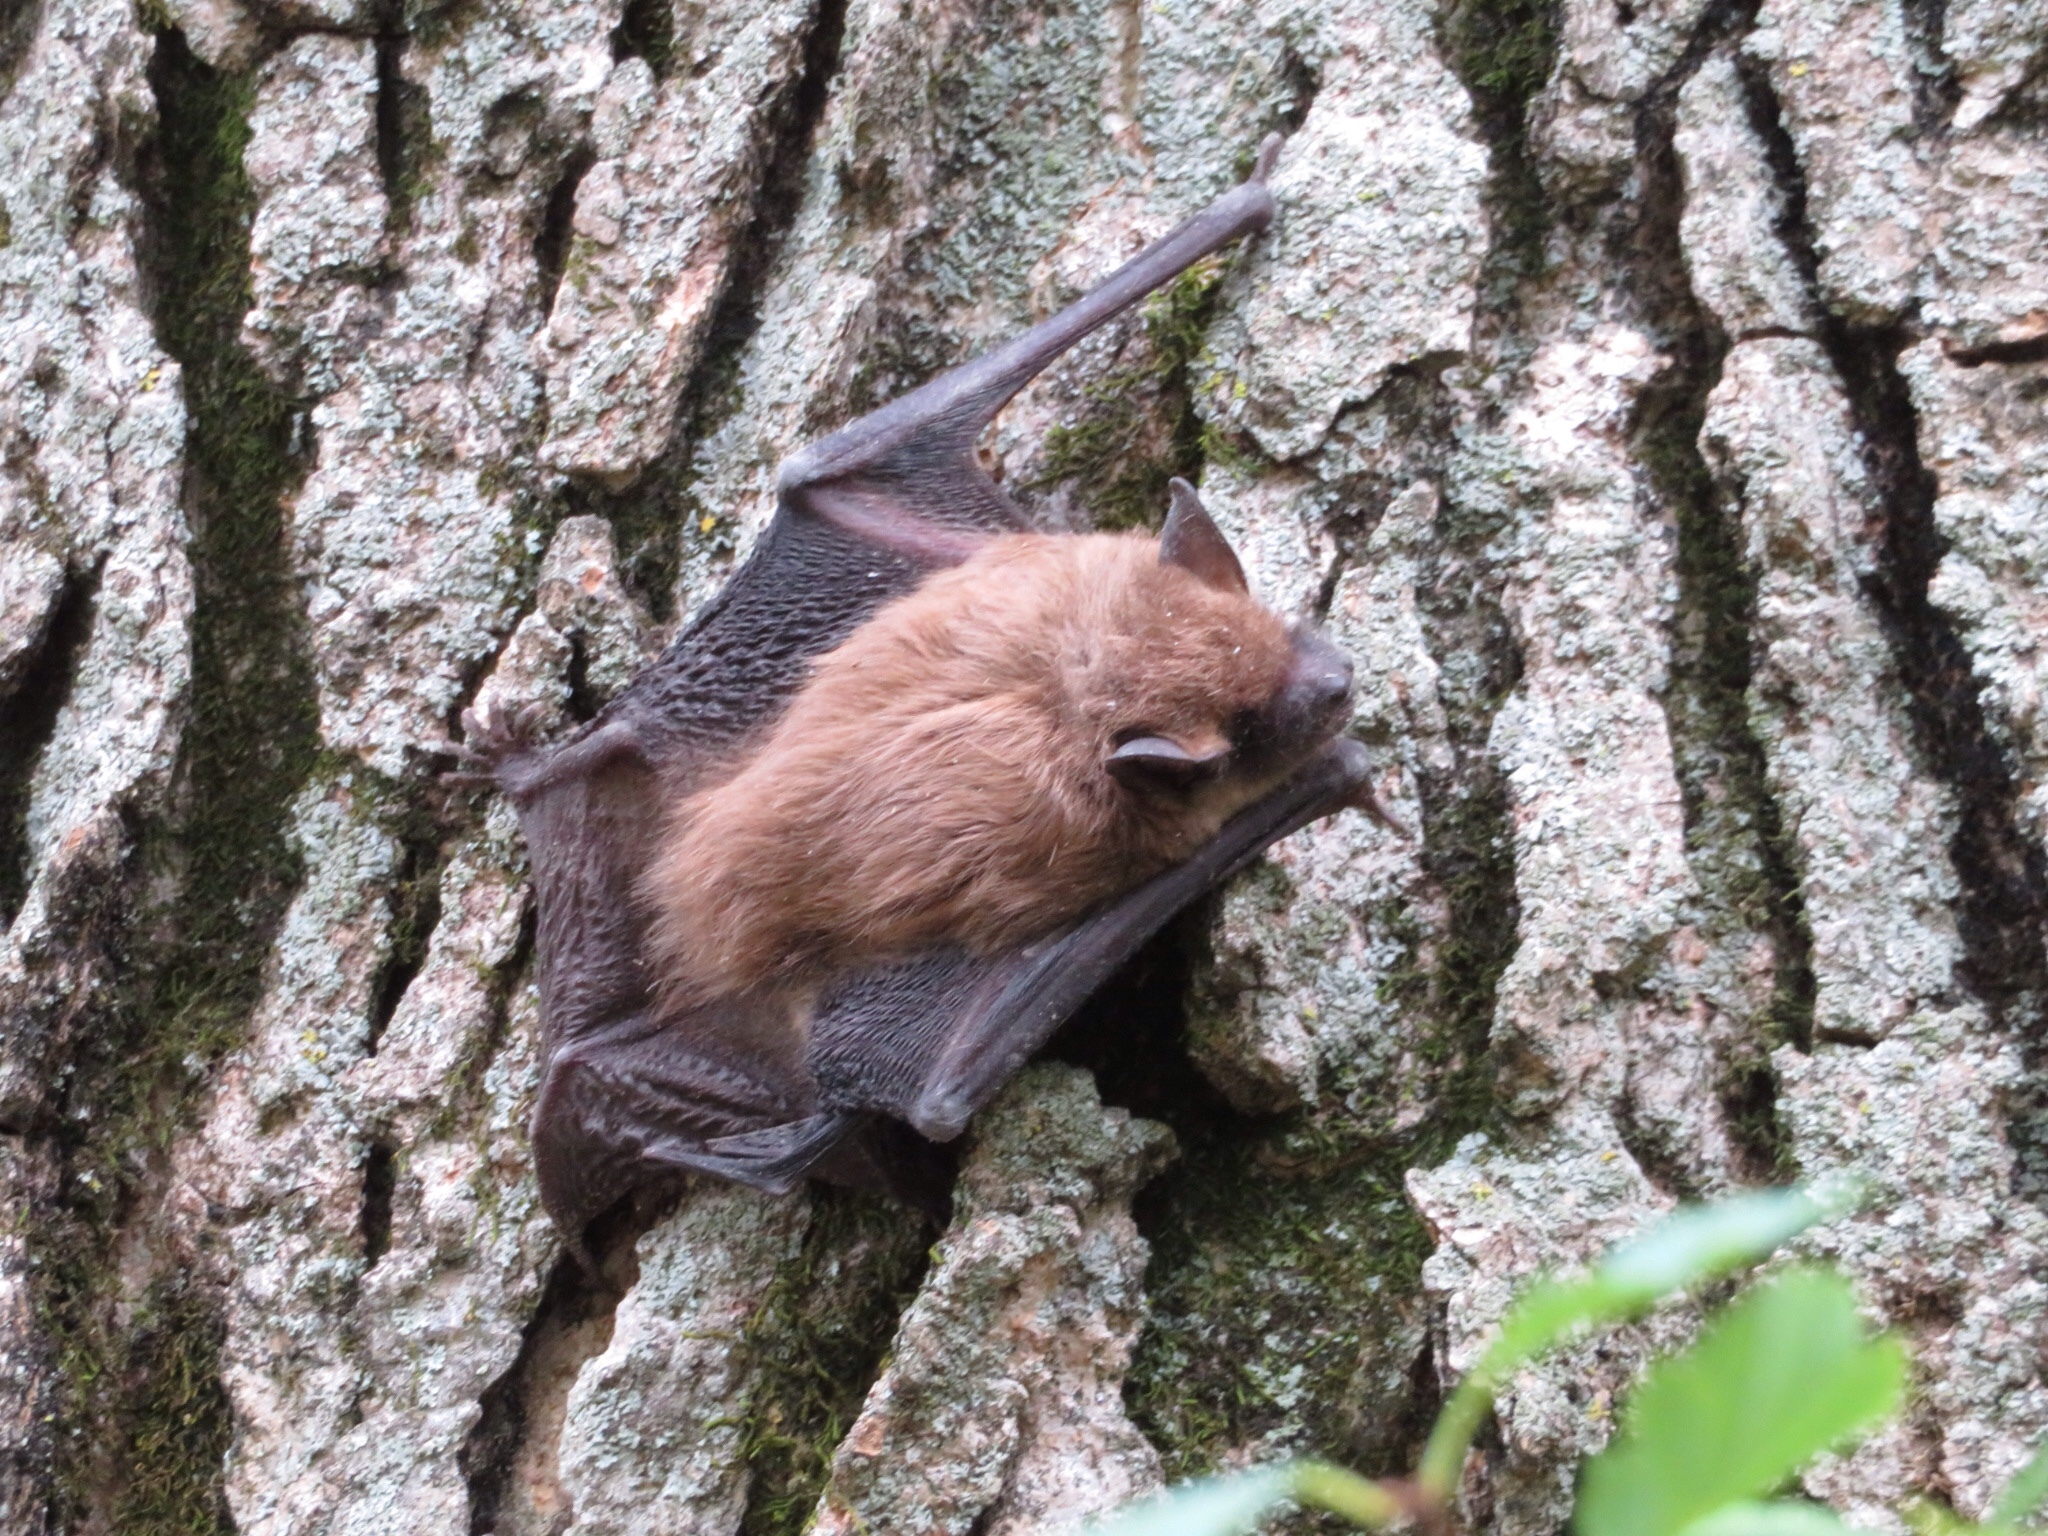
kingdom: Animalia
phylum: Chordata
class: Mammalia
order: Chiroptera
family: Vespertilionidae
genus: Eptesicus
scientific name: Eptesicus fuscus
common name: Big brown bat
